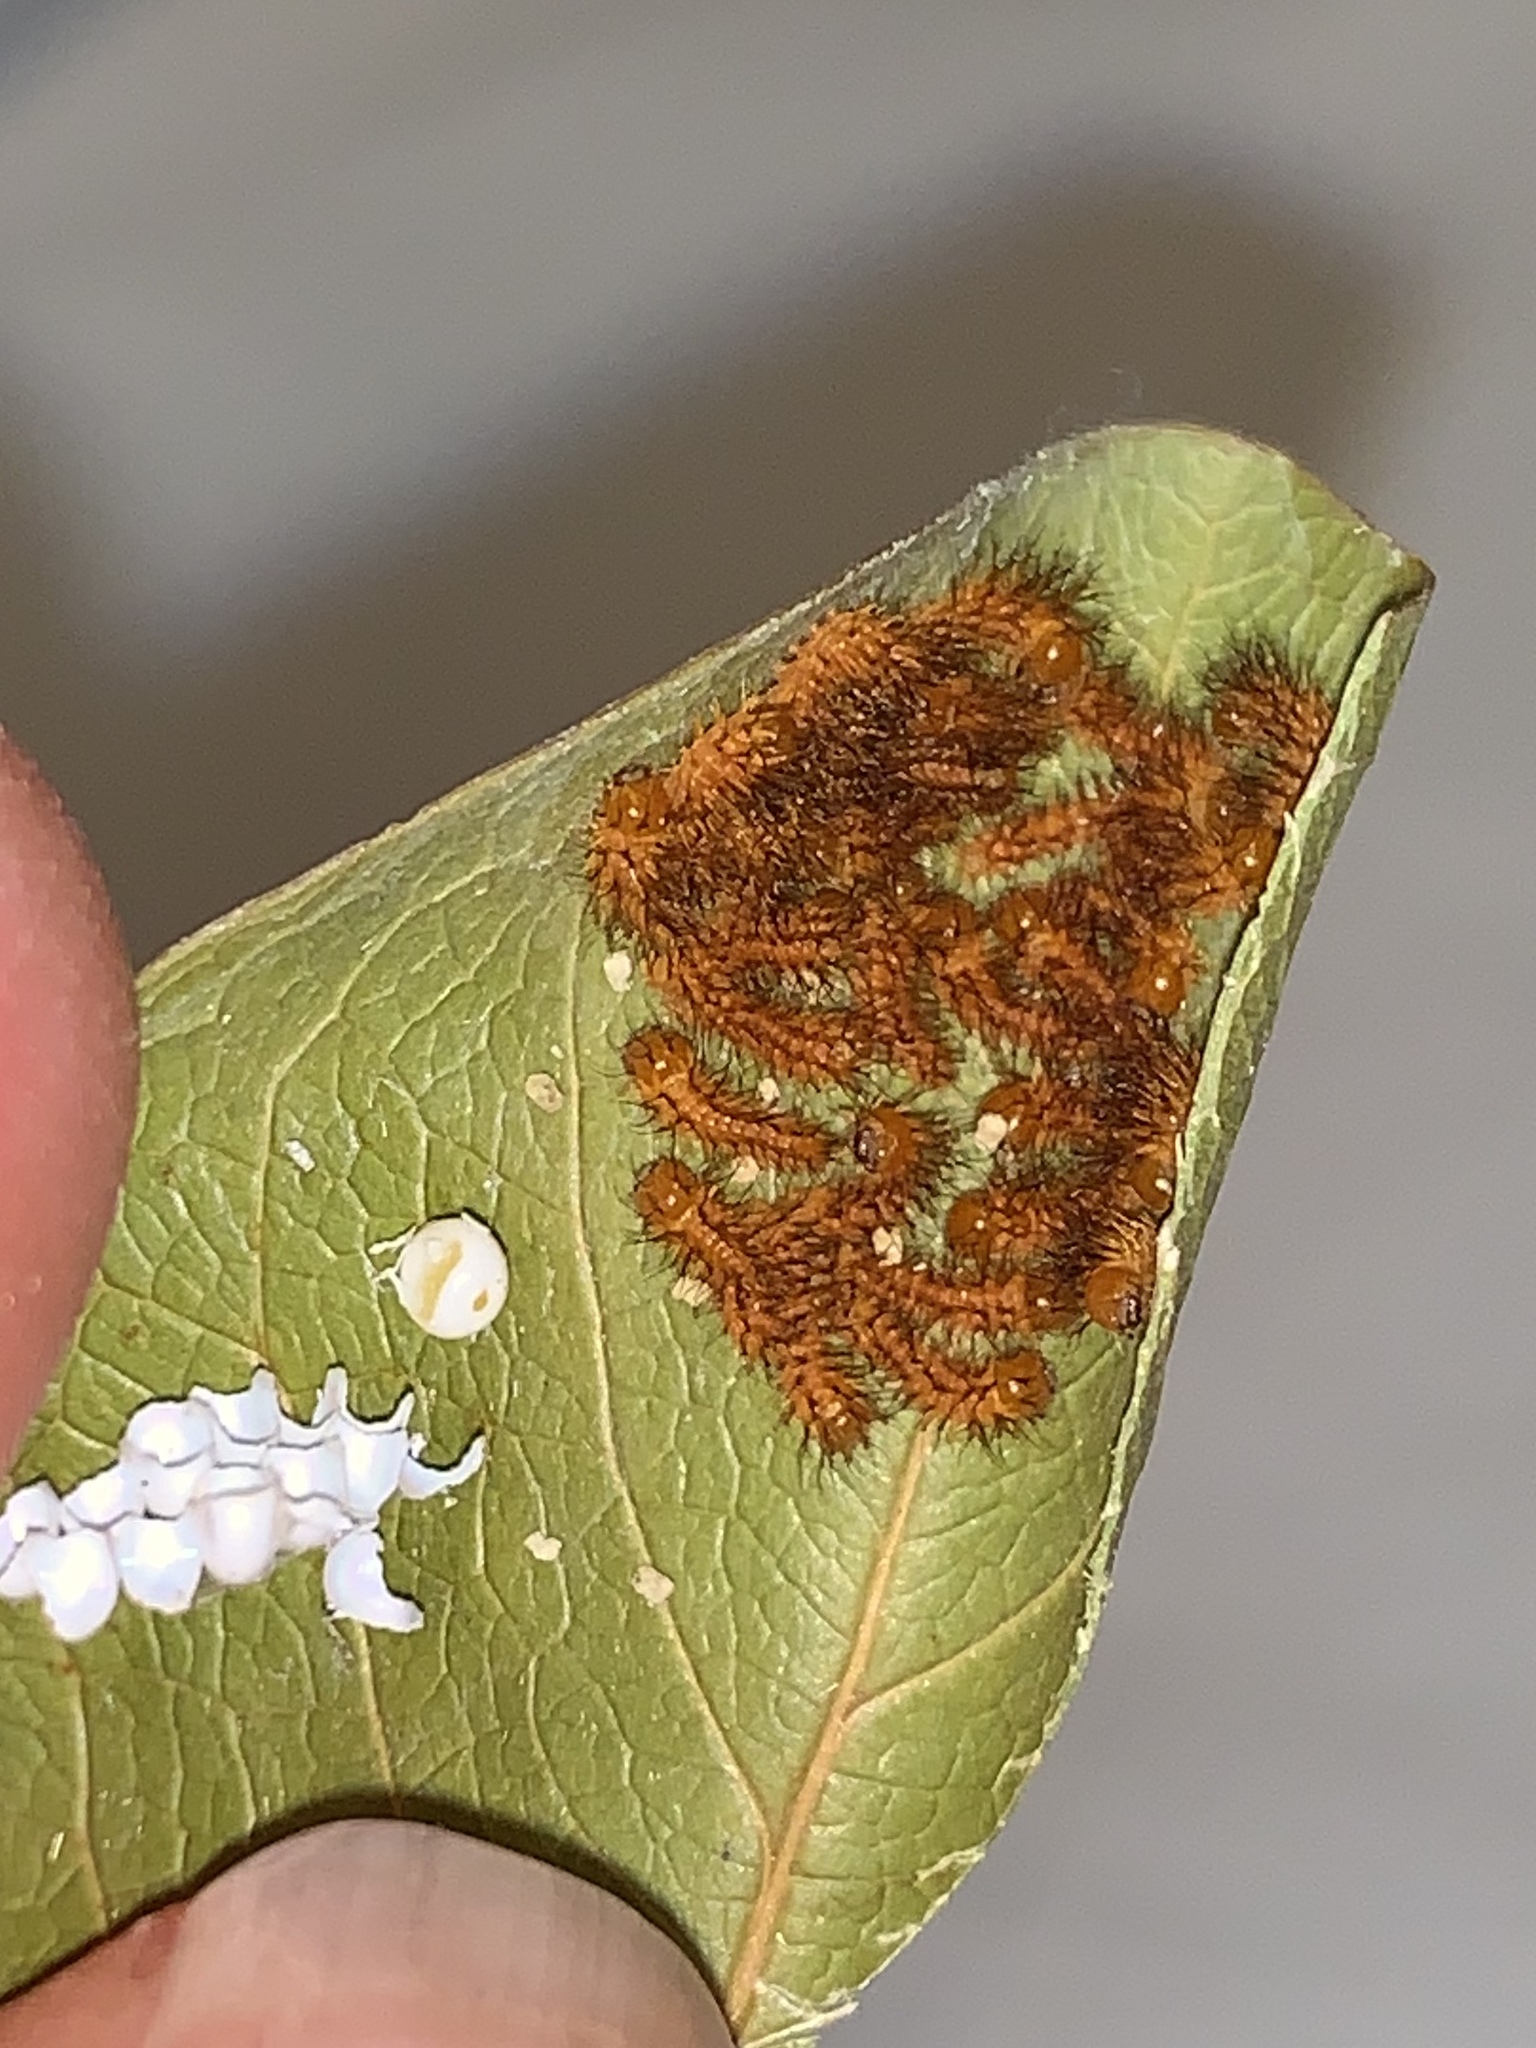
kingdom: Animalia
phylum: Arthropoda
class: Insecta
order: Lepidoptera
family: Saturniidae
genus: Automeris
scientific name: Automeris io
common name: Io moth
